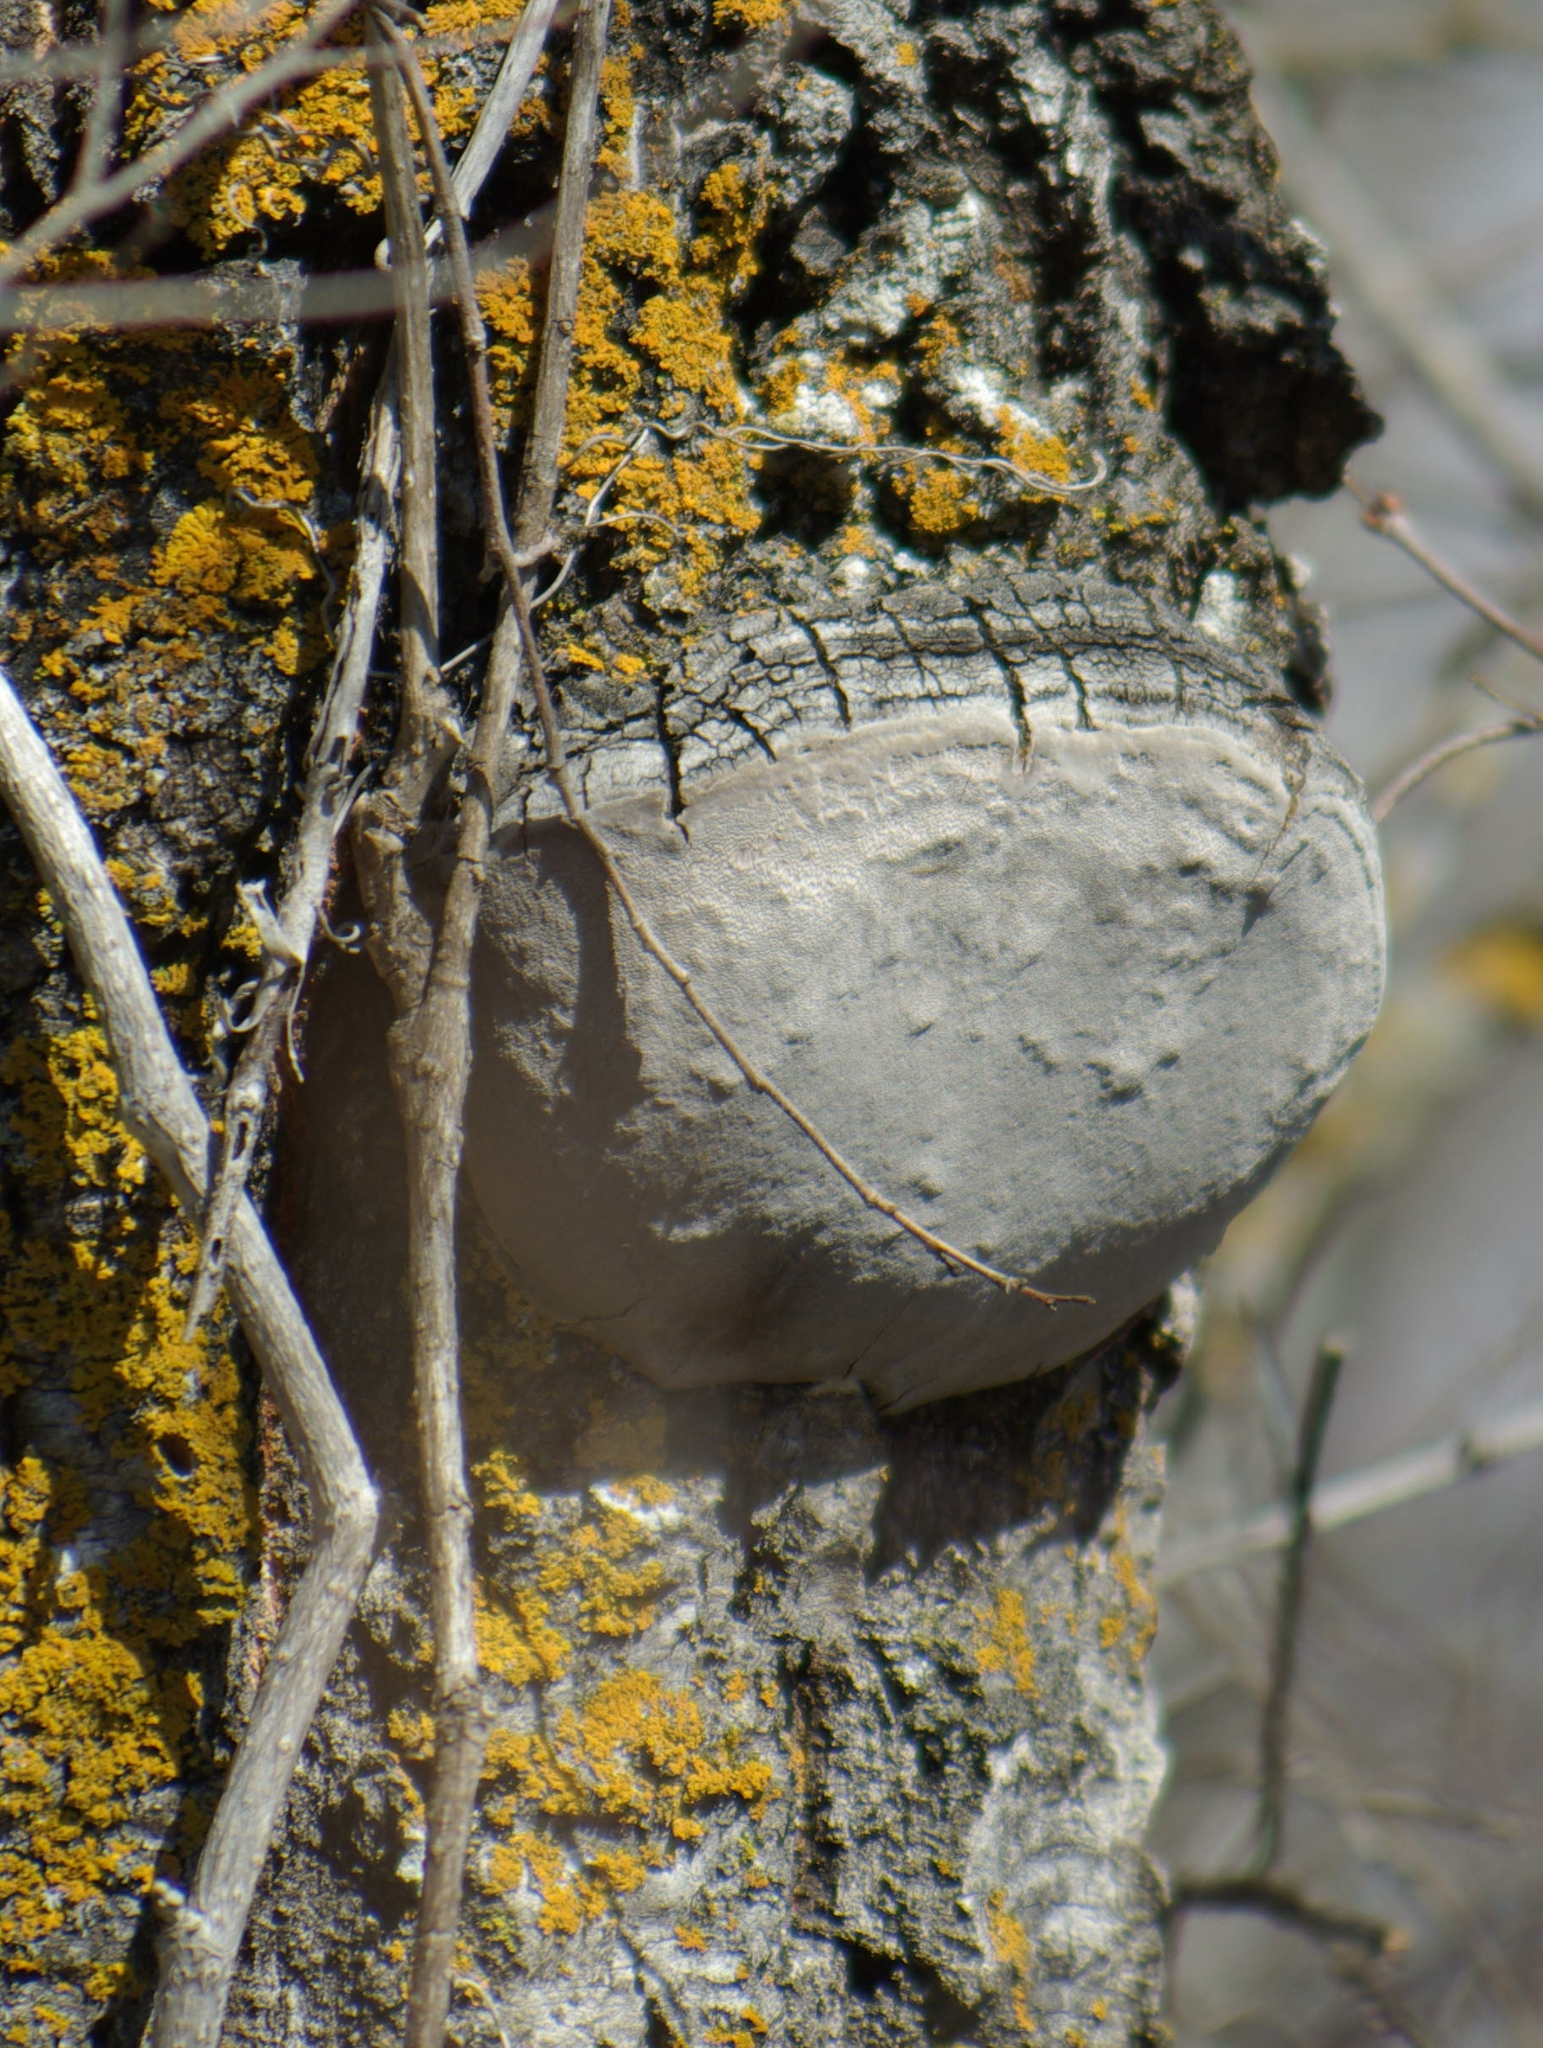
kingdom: Fungi
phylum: Basidiomycota
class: Agaricomycetes
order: Hymenochaetales
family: Hymenochaetaceae
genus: Phellinus
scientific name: Phellinus tremulae
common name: Aspen bracket
